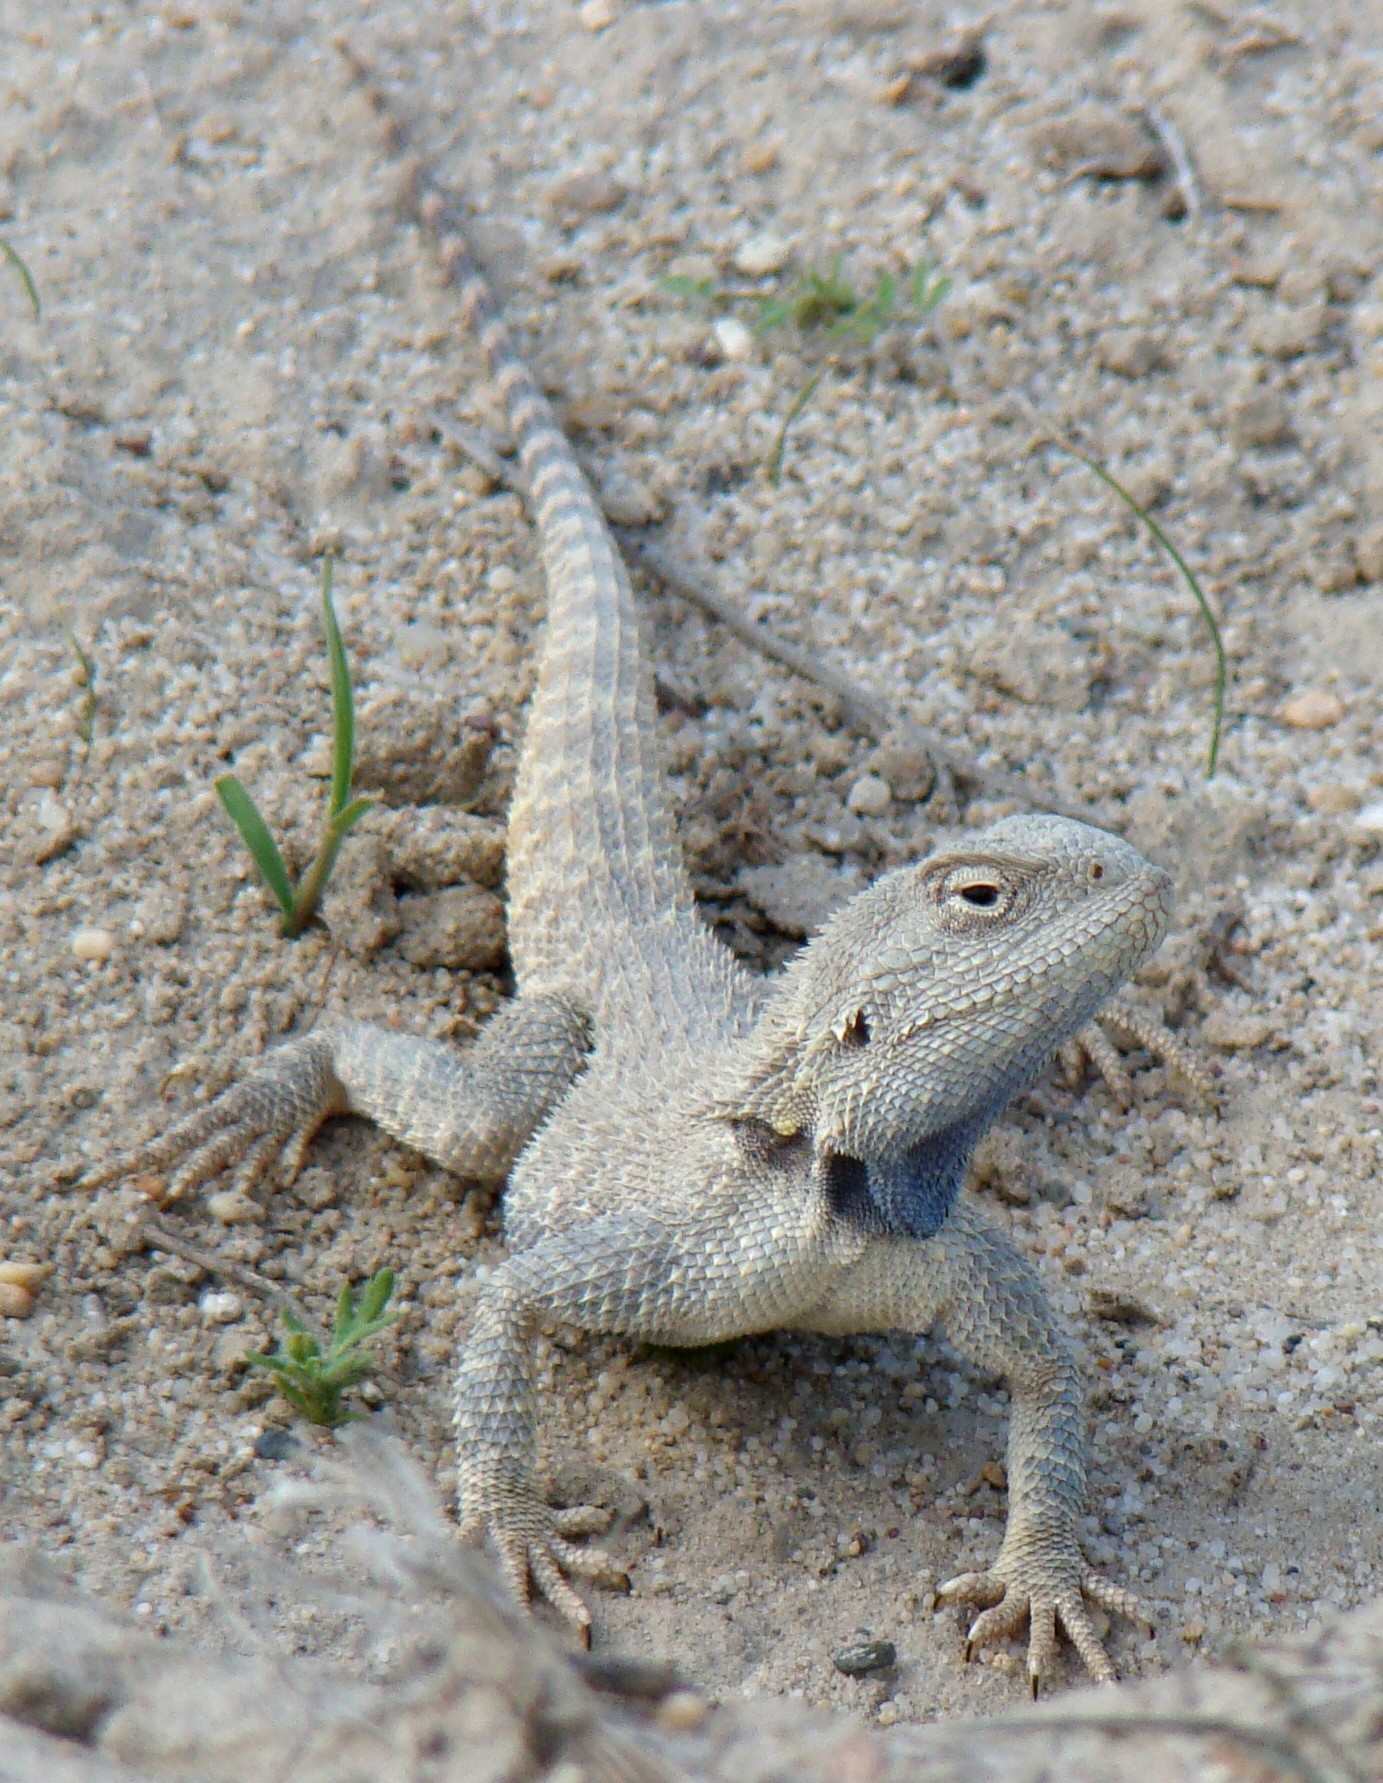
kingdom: Animalia
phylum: Chordata
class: Squamata
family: Agamidae
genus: Trapelus
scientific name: Trapelus sanguinolentus
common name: Steppe agama
